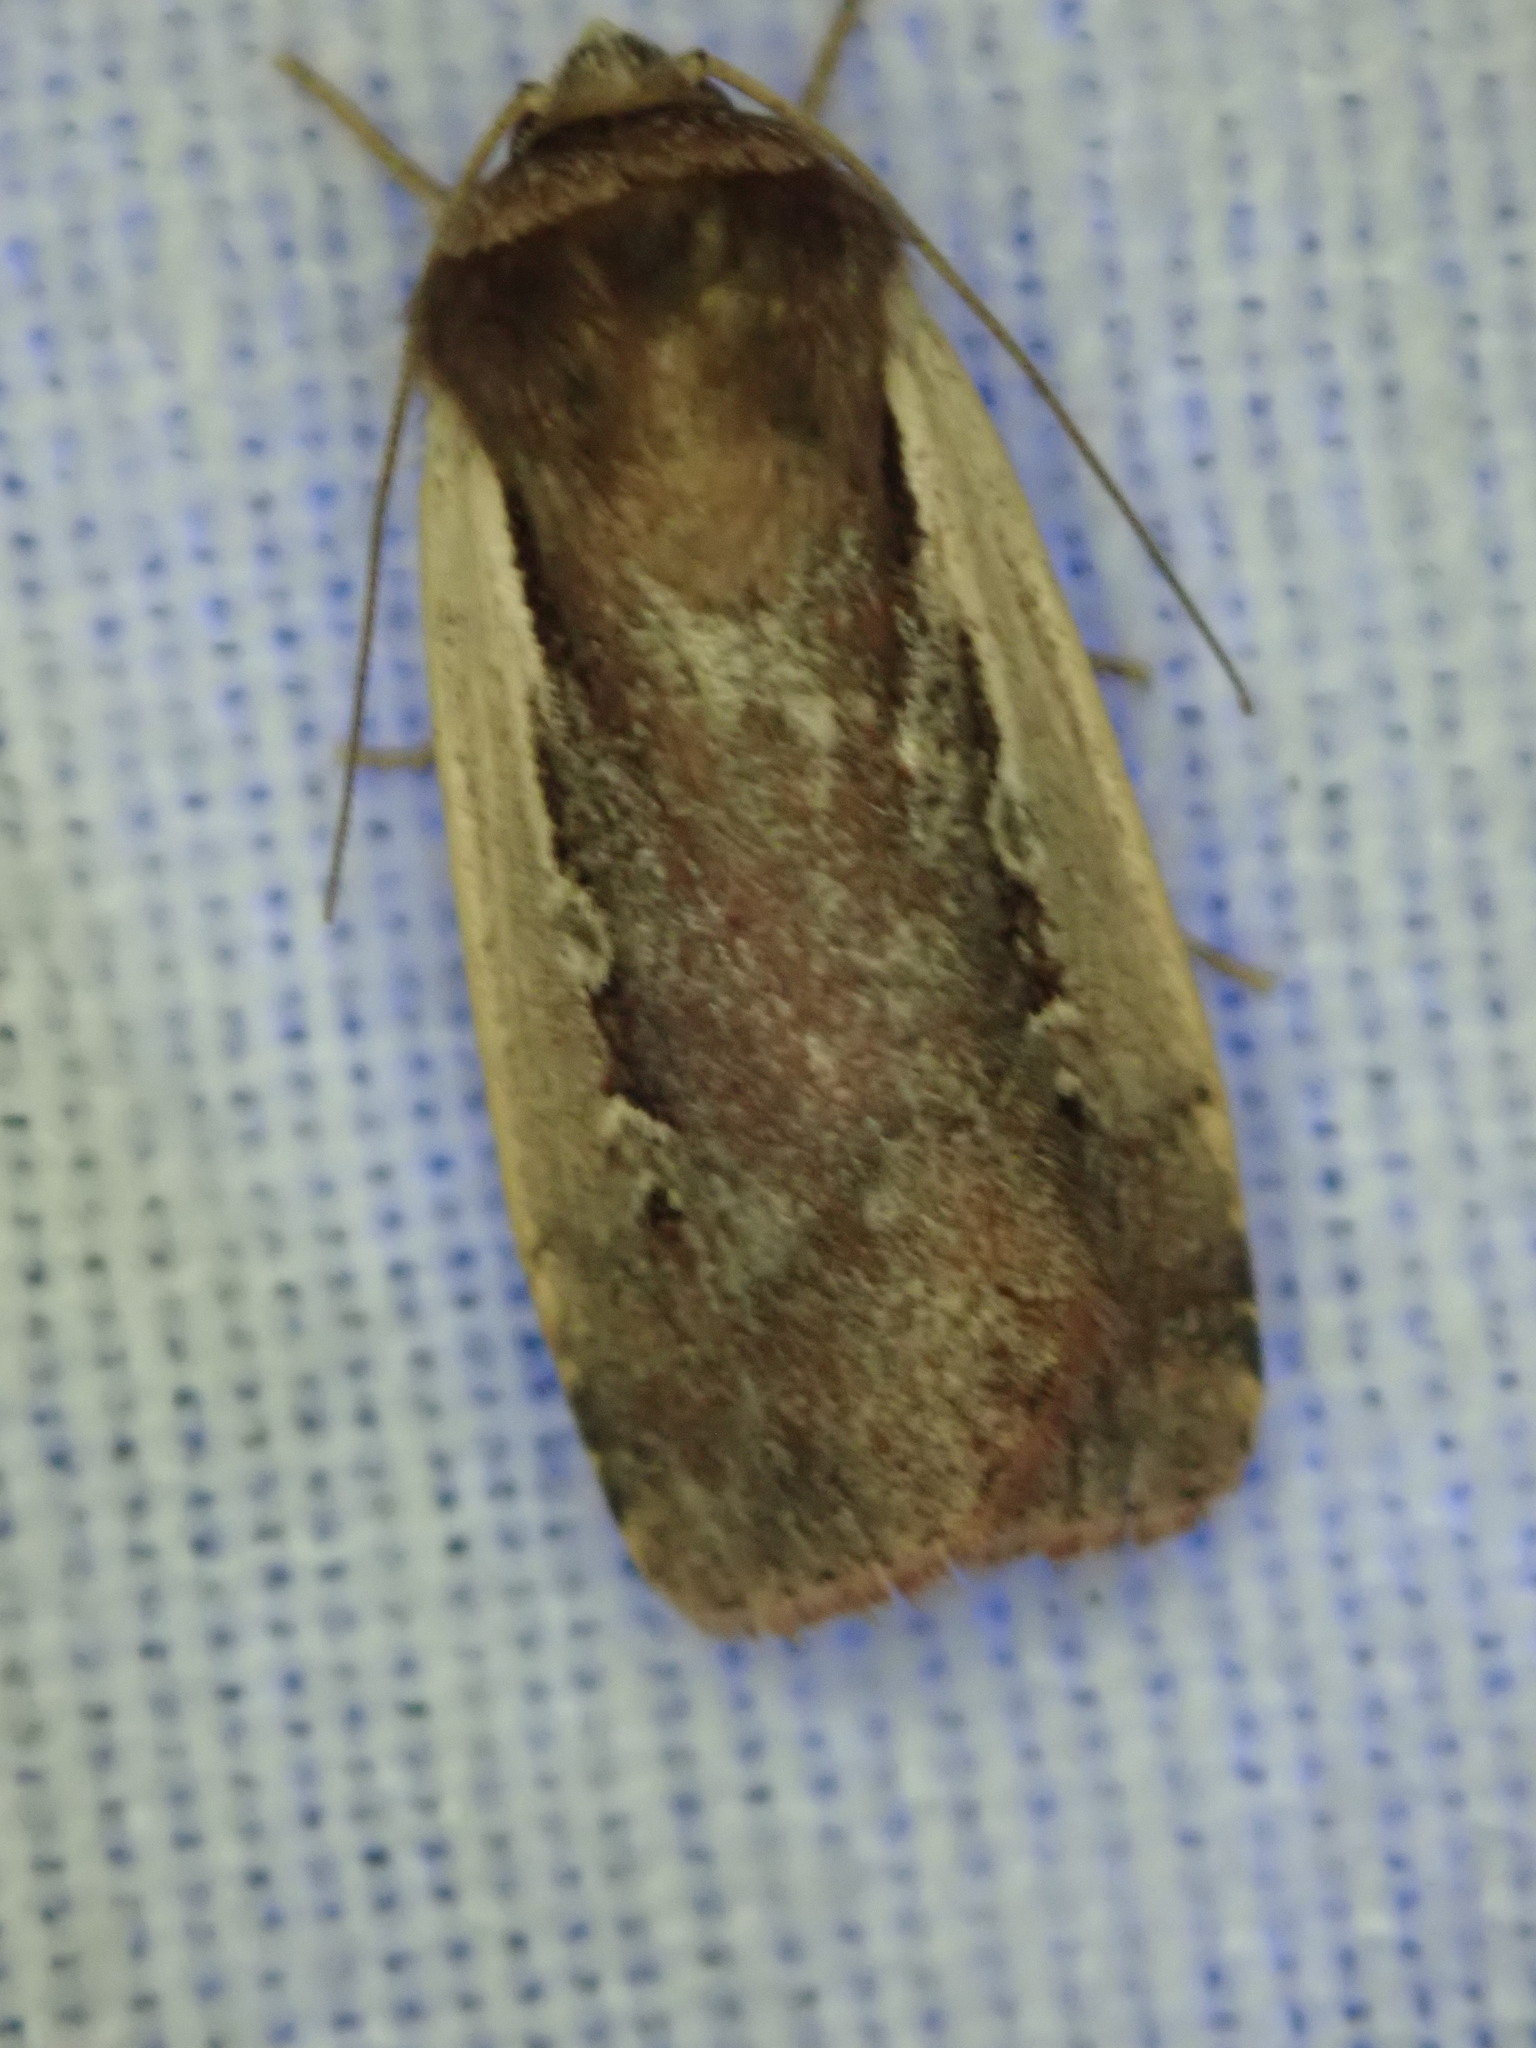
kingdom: Animalia
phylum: Arthropoda
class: Insecta
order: Lepidoptera
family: Noctuidae
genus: Ochropleura
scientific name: Ochropleura plecta
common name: Flame shoulder
